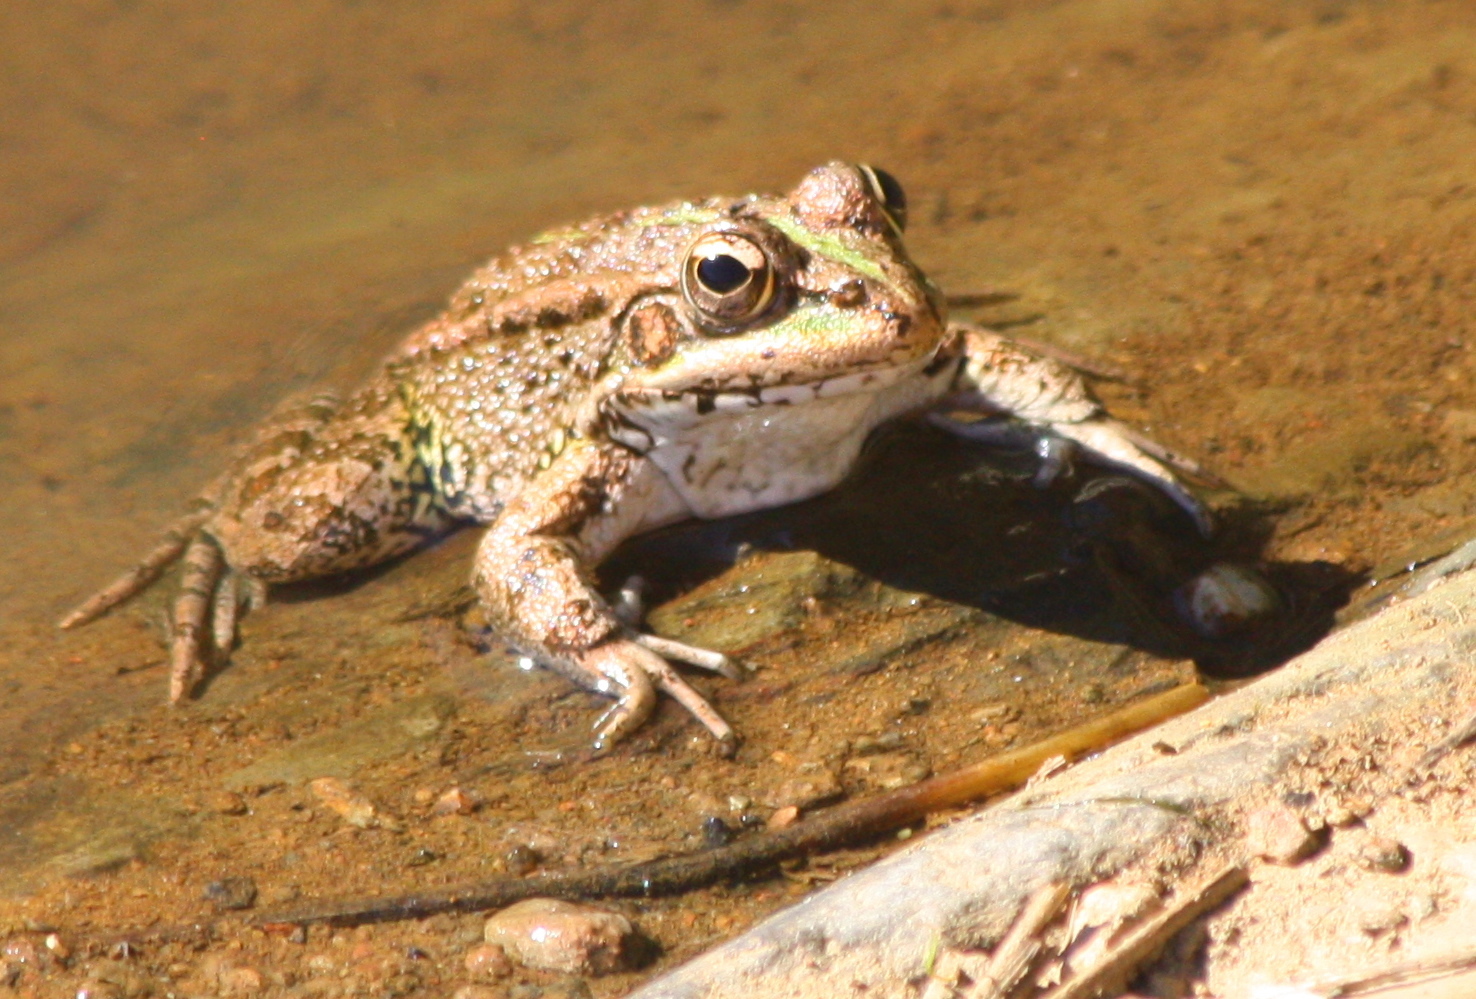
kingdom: Animalia
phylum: Chordata
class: Amphibia
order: Anura
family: Ranidae
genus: Pelophylax
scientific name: Pelophylax perezi
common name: Perez's frog
